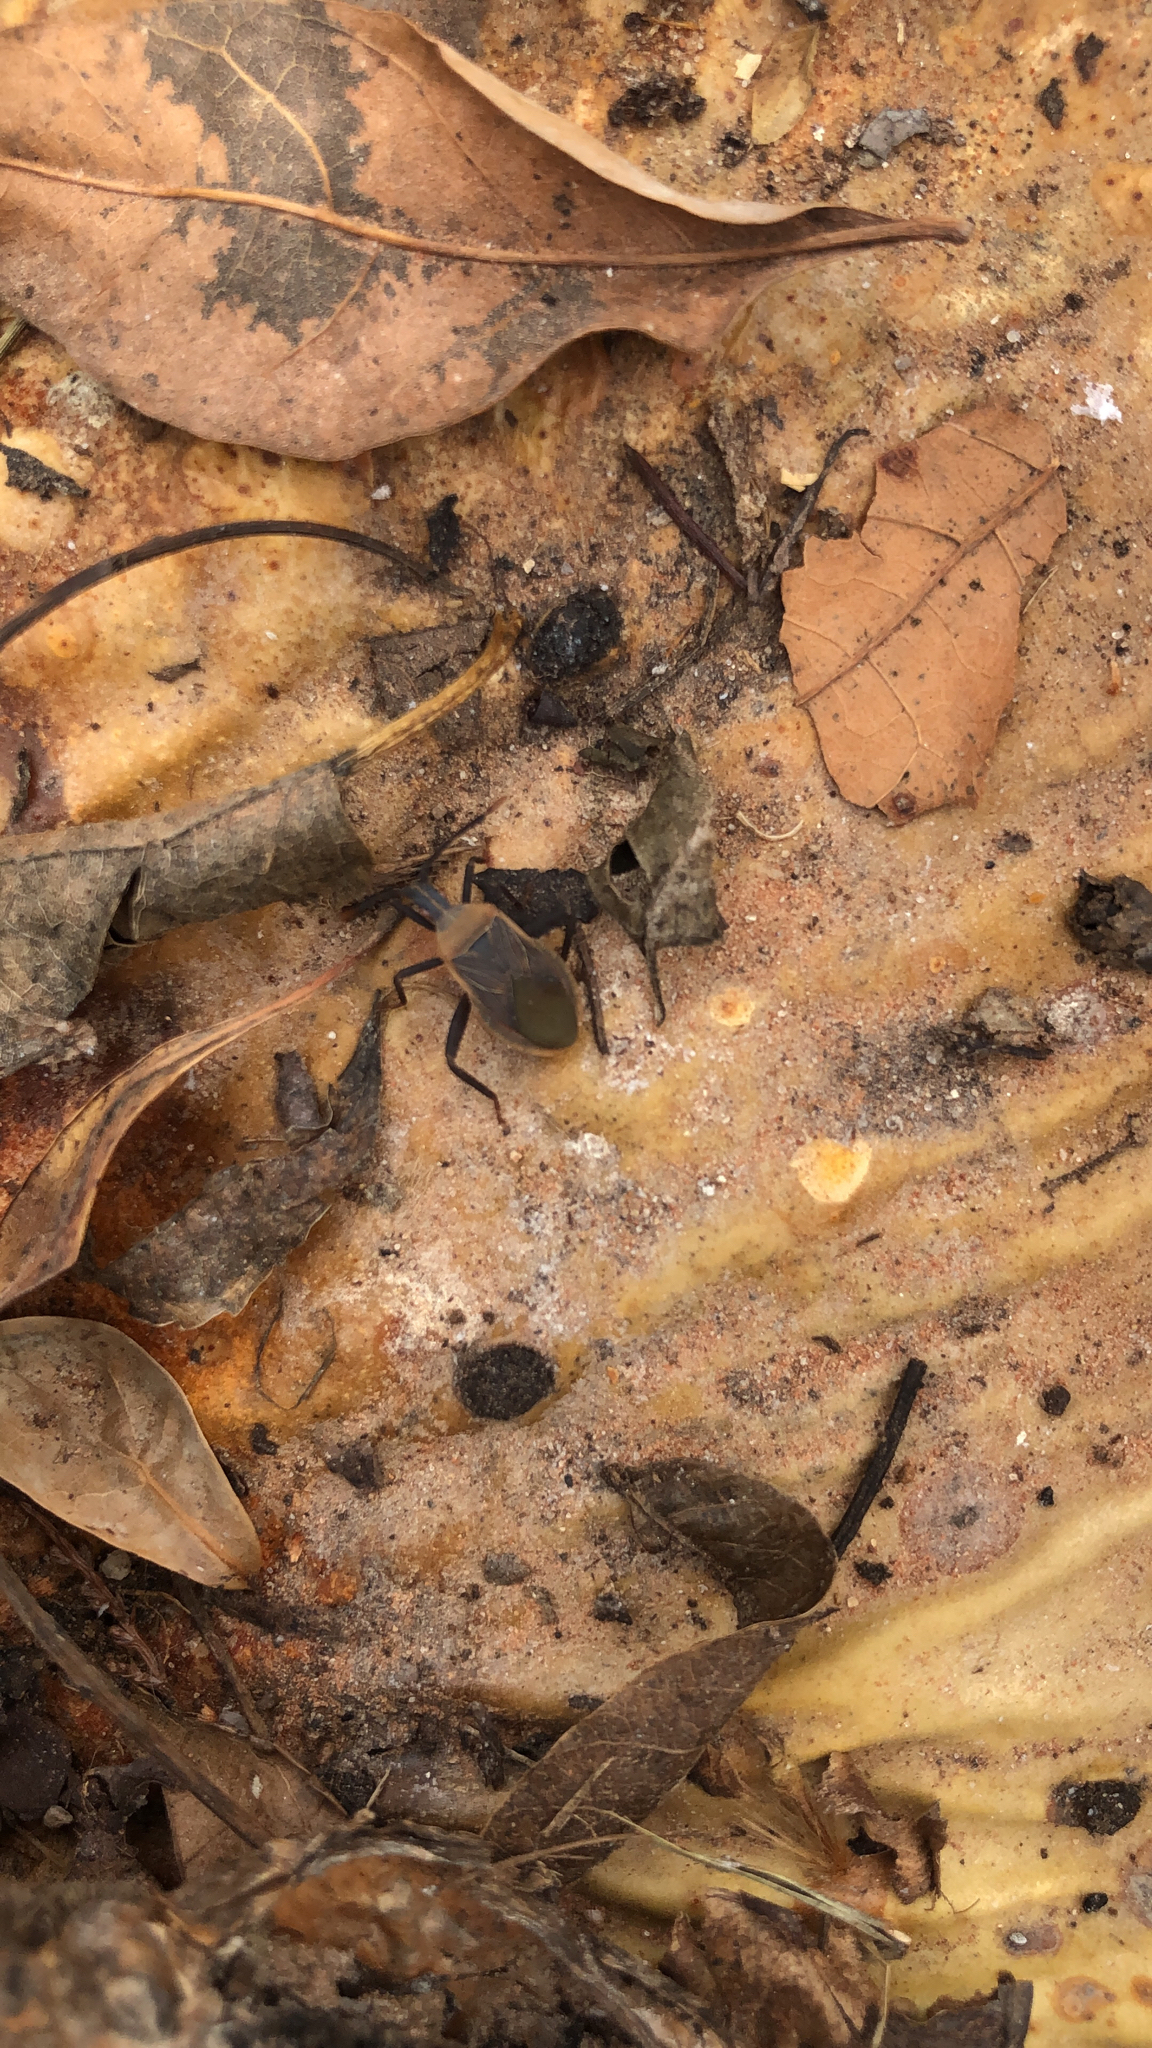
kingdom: Animalia
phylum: Arthropoda
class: Insecta
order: Hemiptera
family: Coreidae
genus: Chelinidea
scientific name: Chelinidea vittiger
